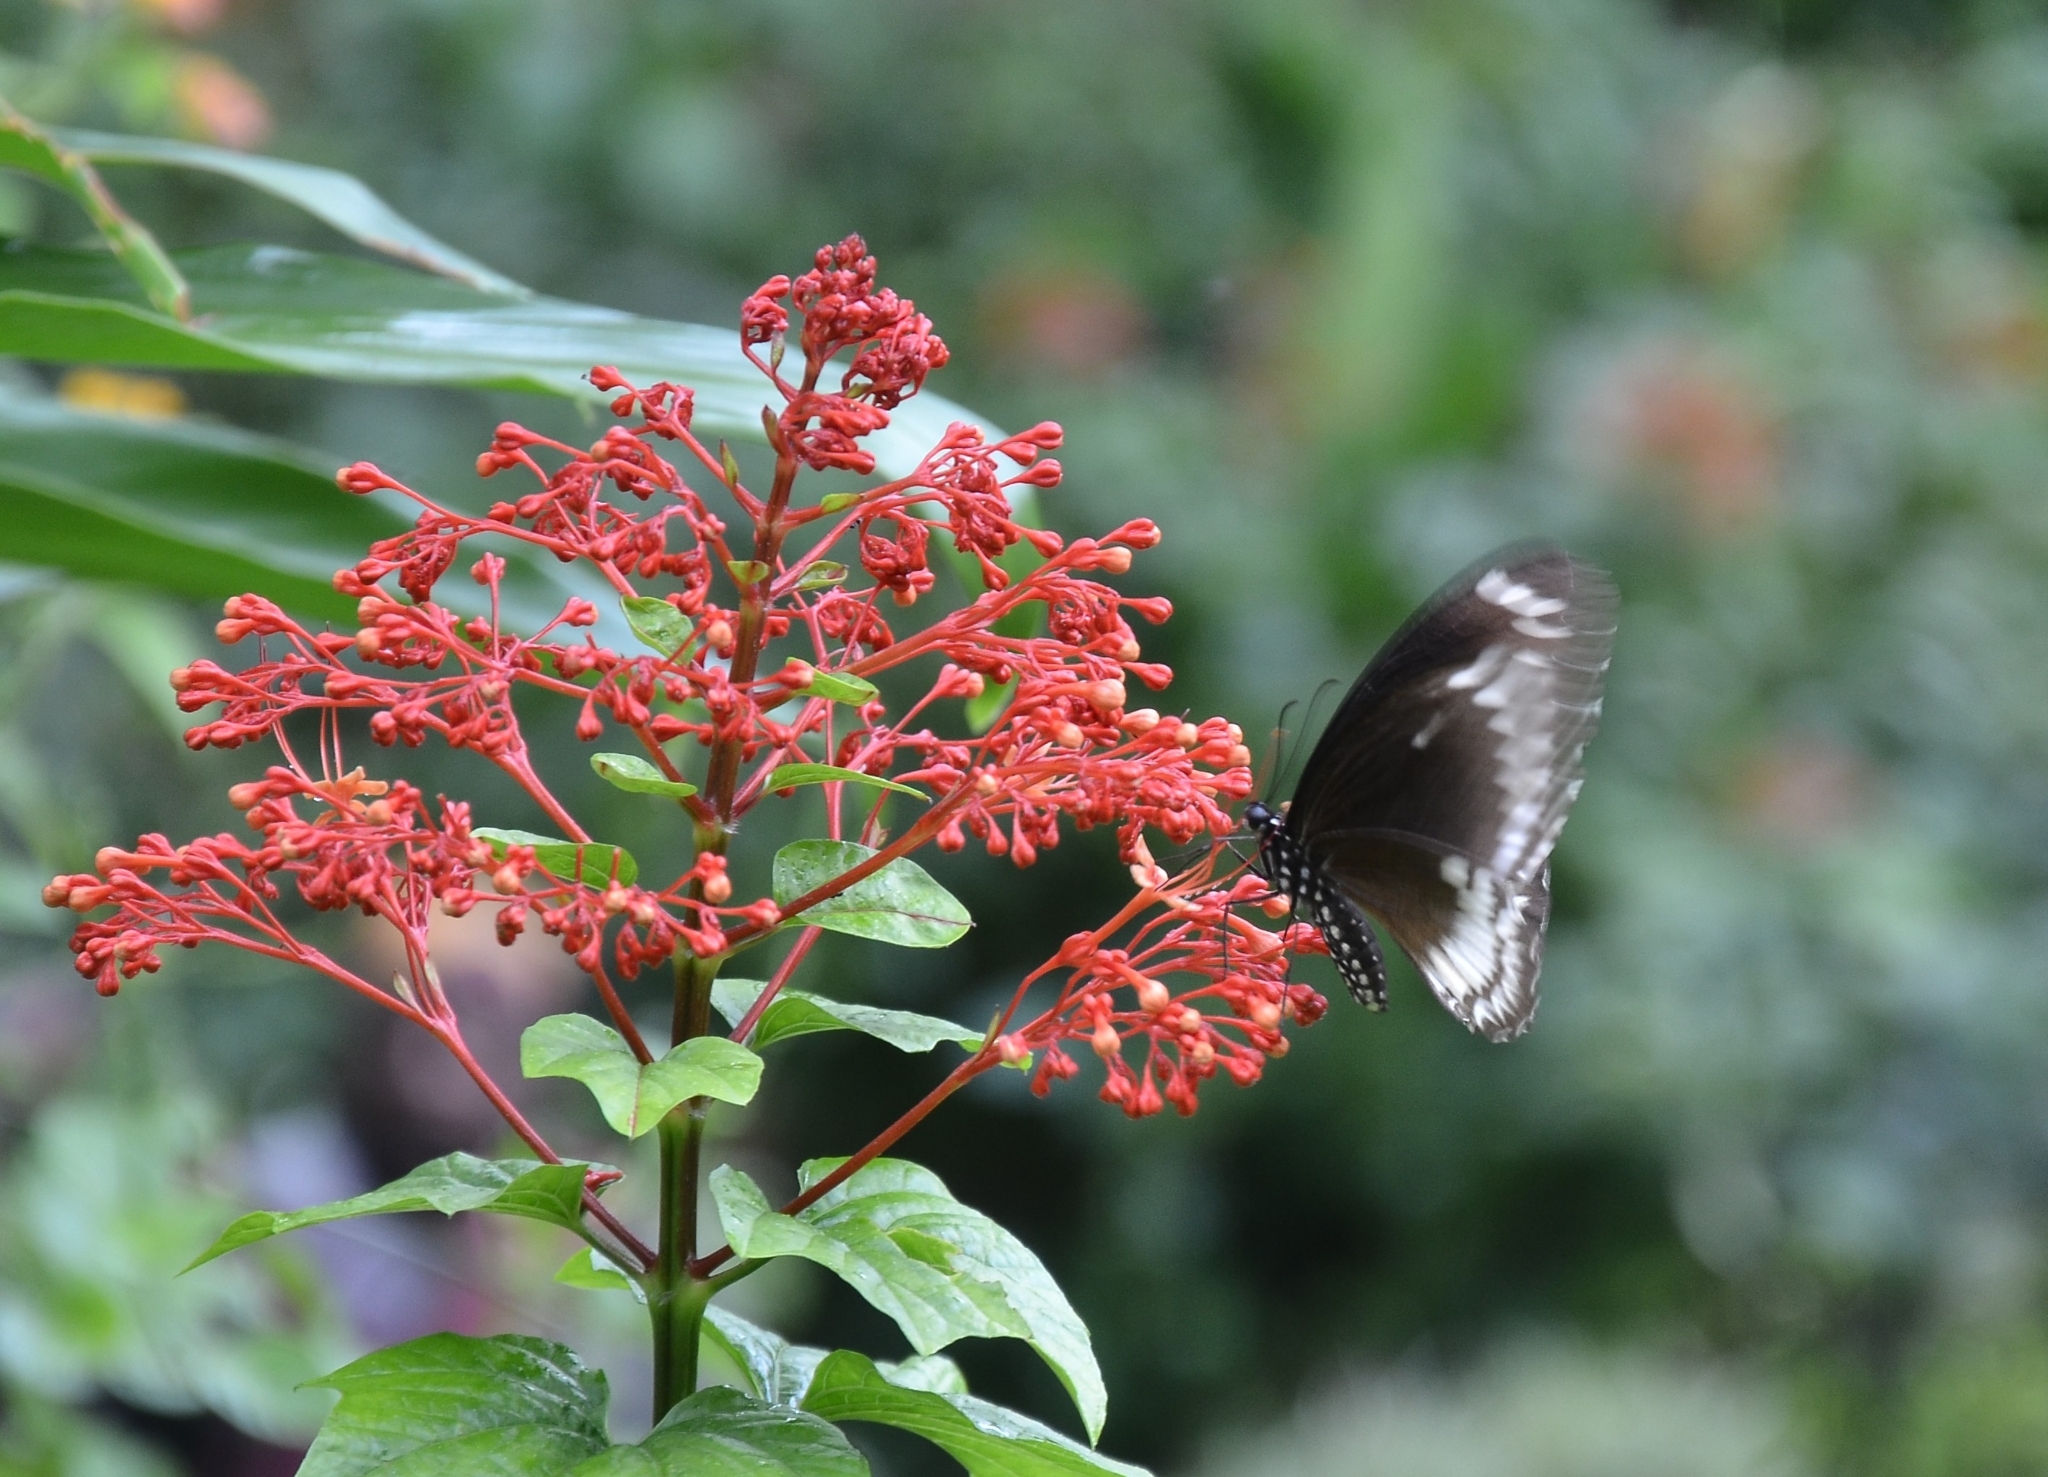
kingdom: Animalia
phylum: Arthropoda
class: Insecta
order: Lepidoptera
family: Papilionidae
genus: Papilio
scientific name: Papilio dravidarum
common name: Malabar raven
